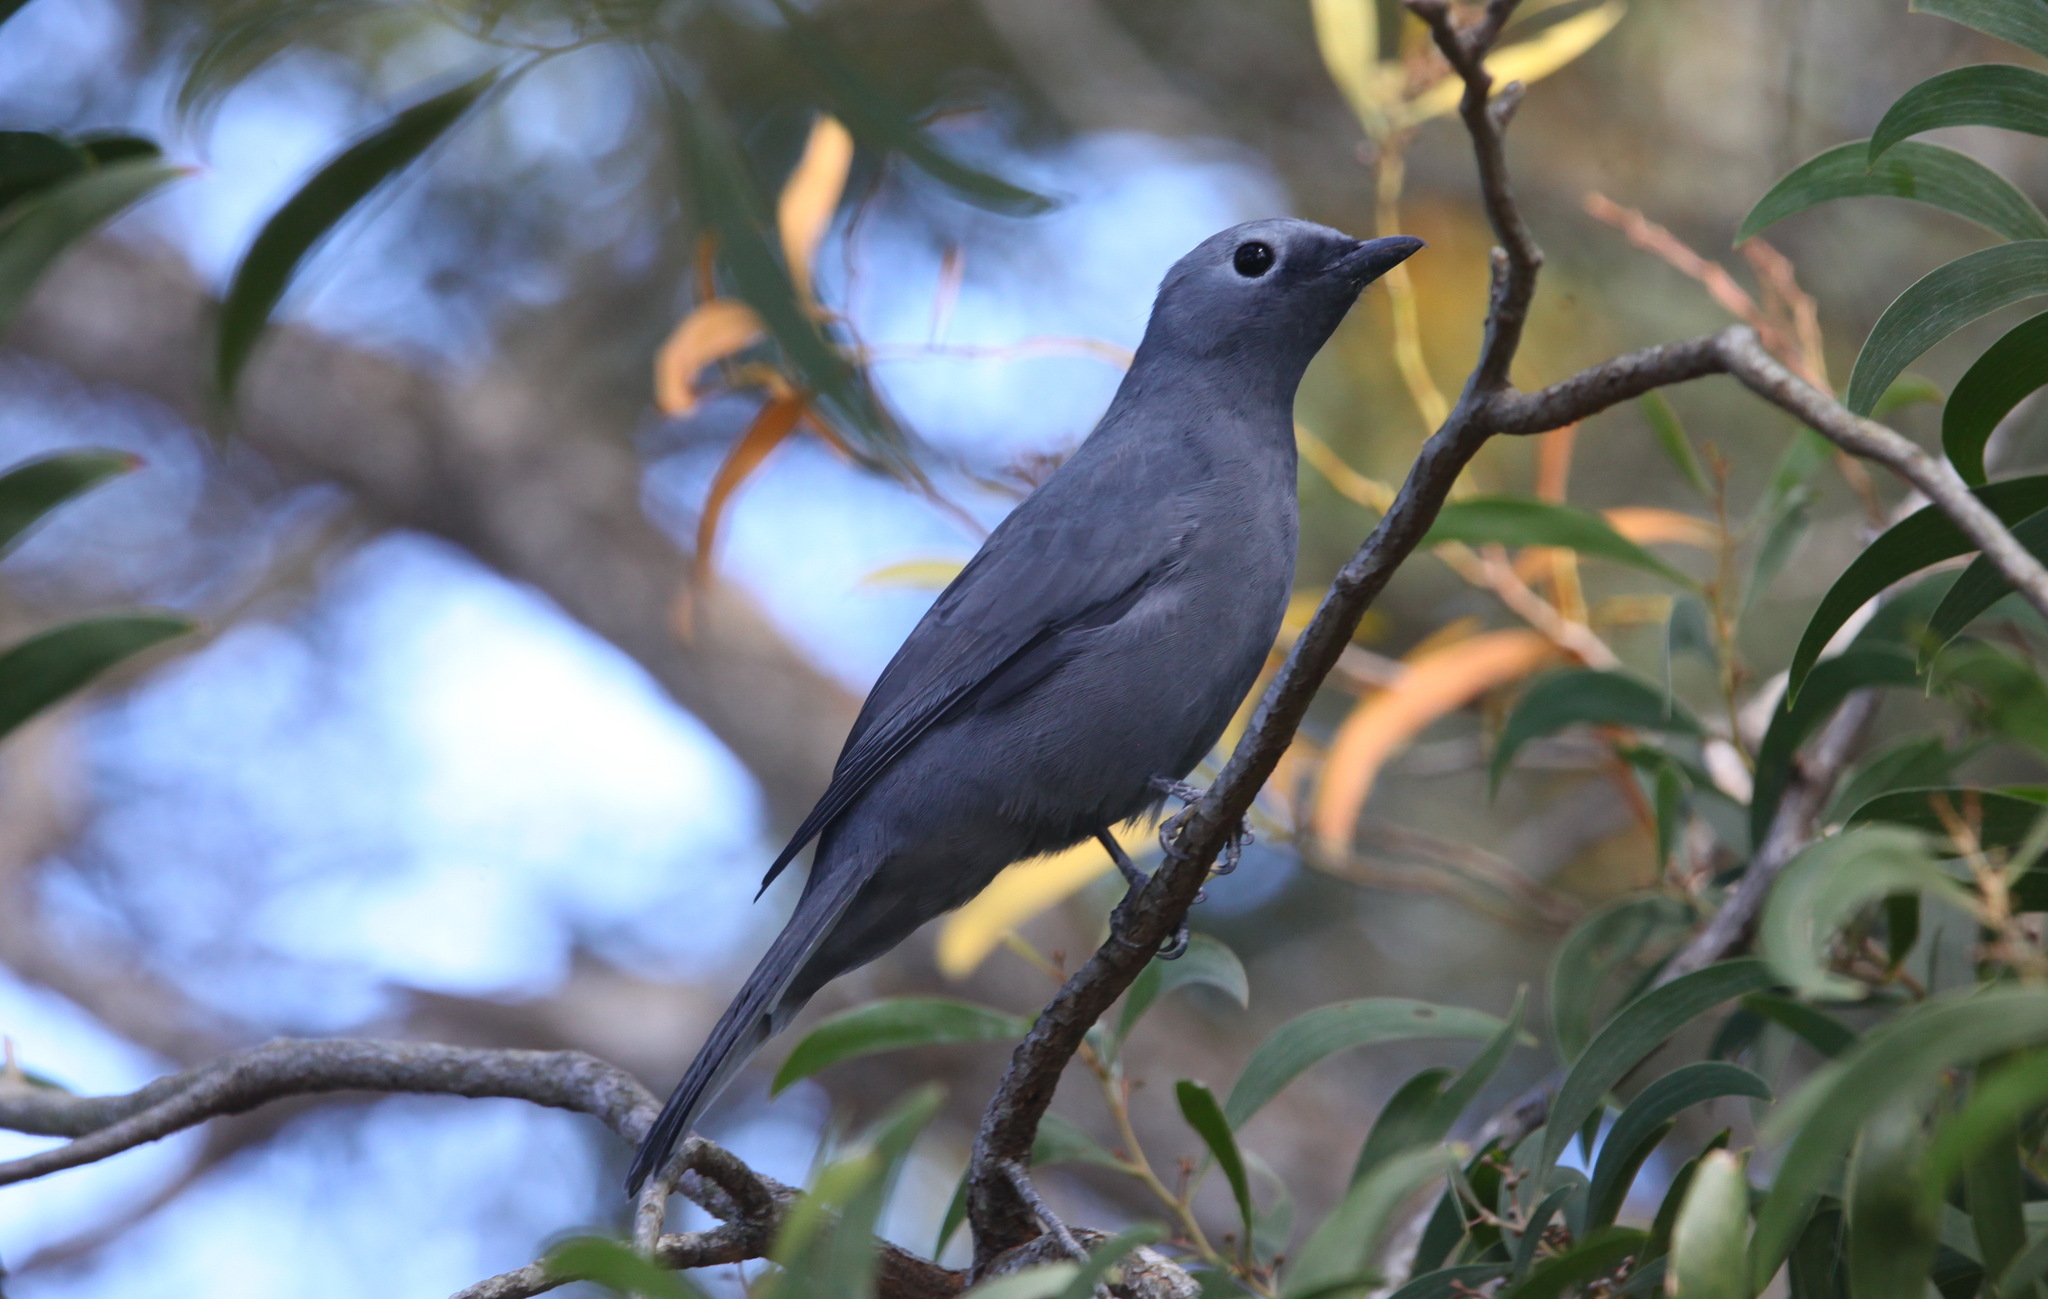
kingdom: Animalia
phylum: Chordata
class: Aves
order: Passeriformes
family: Campephagidae
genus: Coracina
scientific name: Coracina caesia
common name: Grey cuckooshrike
